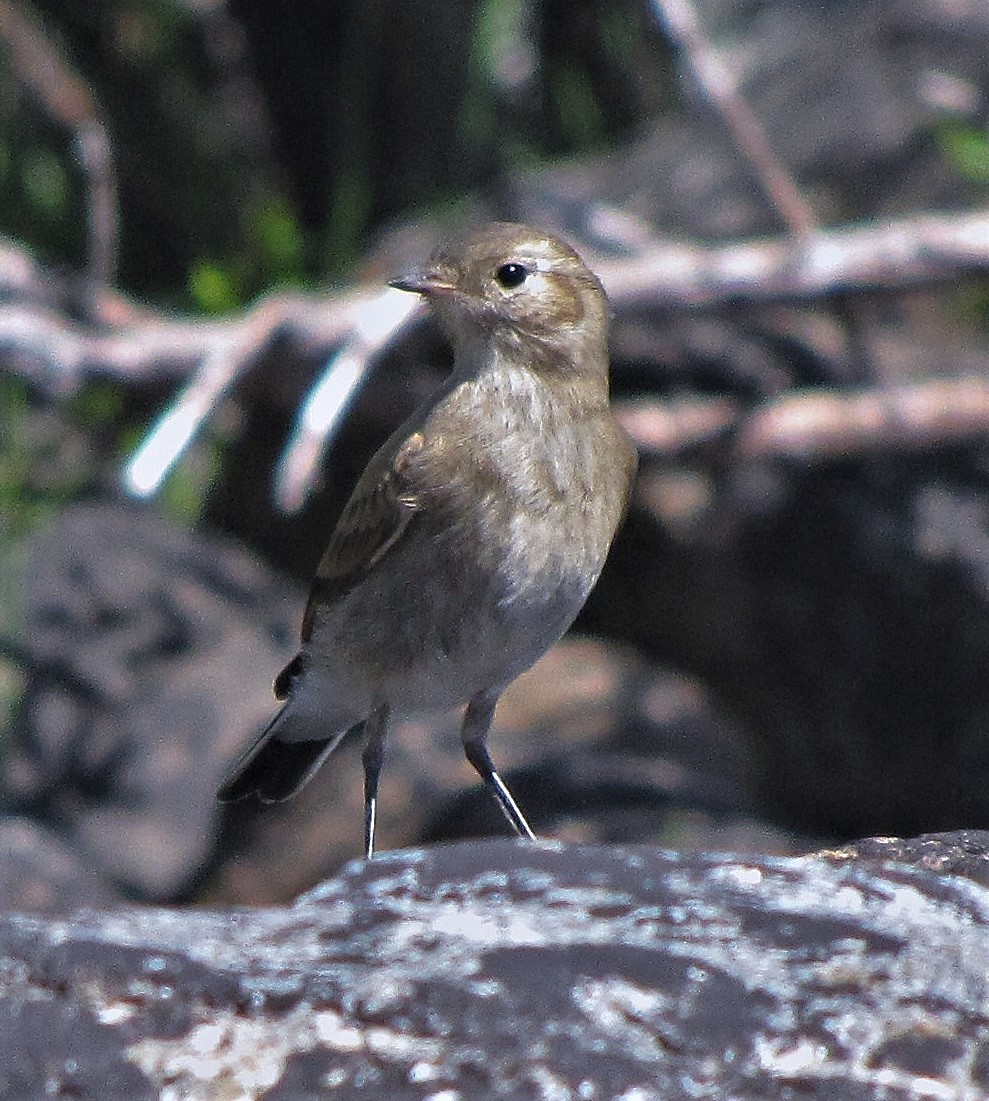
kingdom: Animalia
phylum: Chordata
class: Aves
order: Passeriformes
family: Tyrannidae
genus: Lessonia
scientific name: Lessonia rufa
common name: Austral negrito
